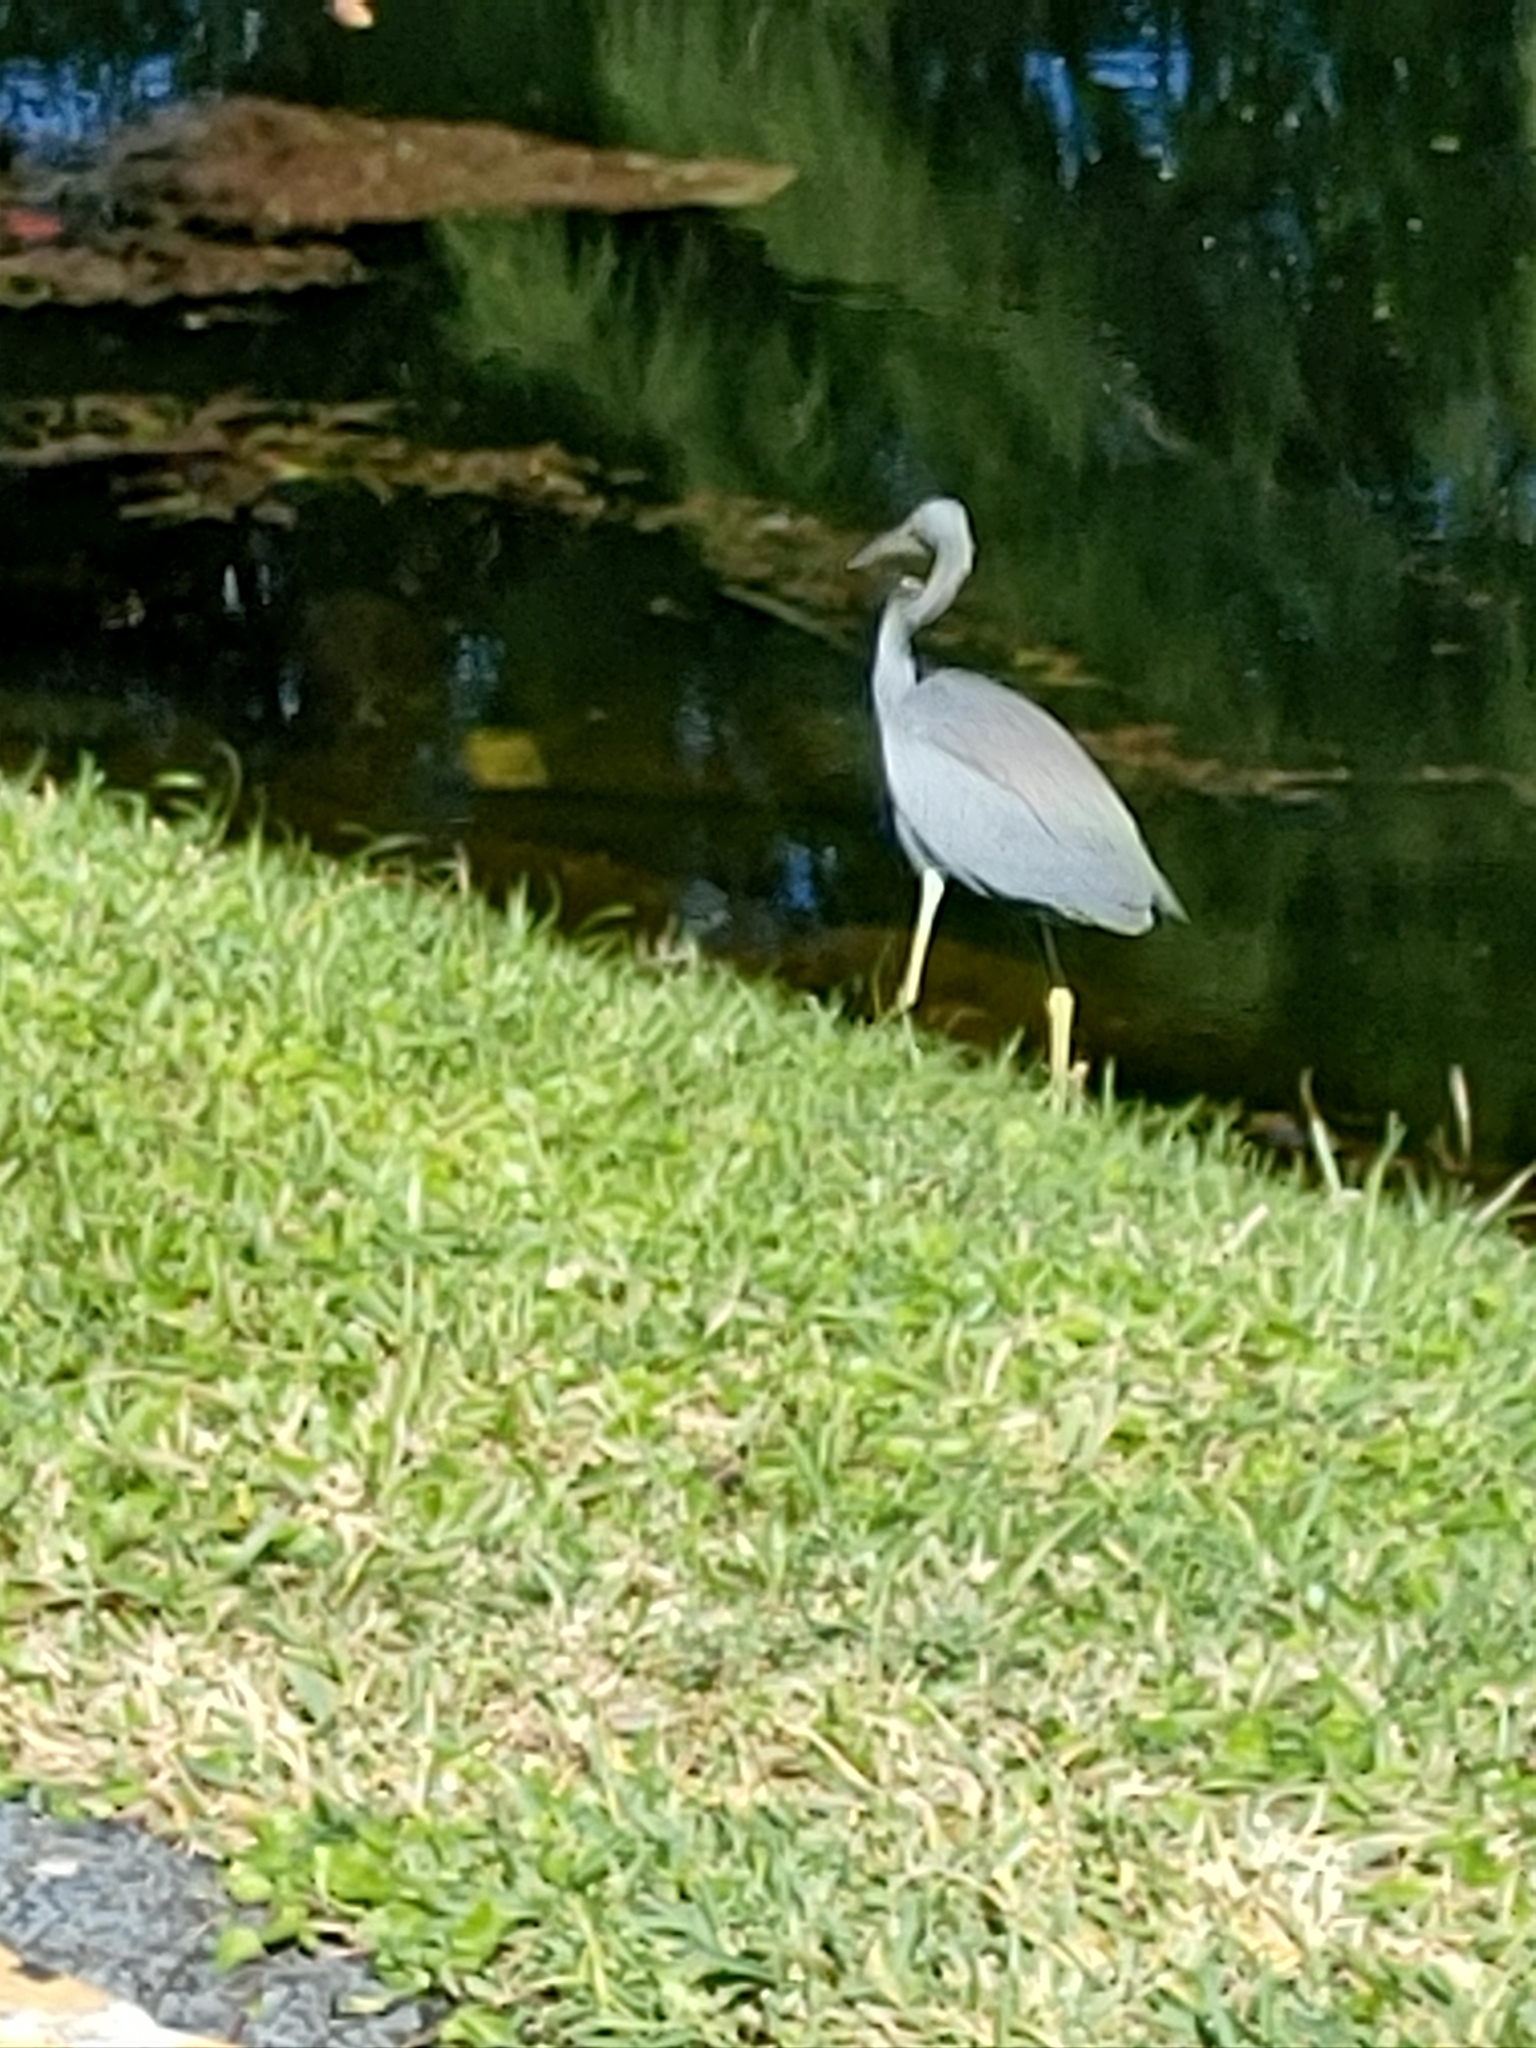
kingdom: Animalia
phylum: Chordata
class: Aves
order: Pelecaniformes
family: Ardeidae
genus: Egretta
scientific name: Egretta tricolor
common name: Tricolored heron
